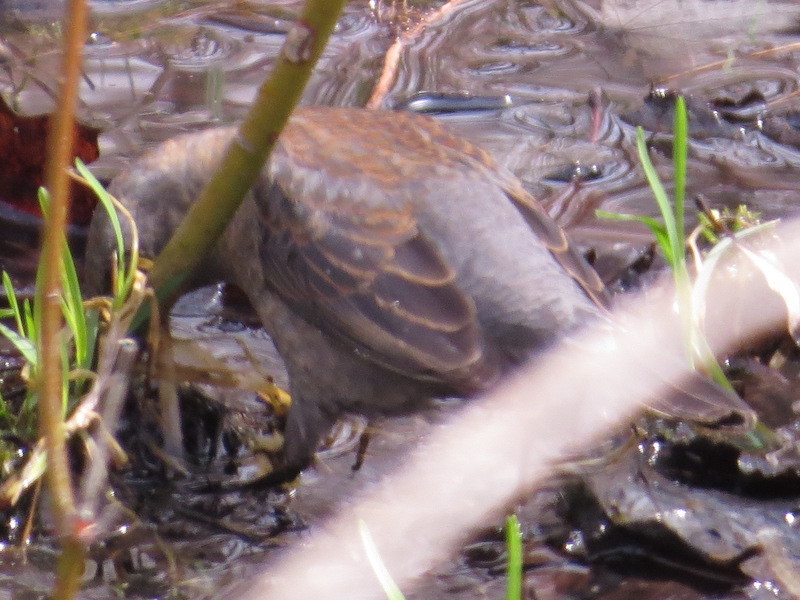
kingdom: Animalia
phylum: Chordata
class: Aves
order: Passeriformes
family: Icteridae
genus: Euphagus
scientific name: Euphagus carolinus
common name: Rusty blackbird
